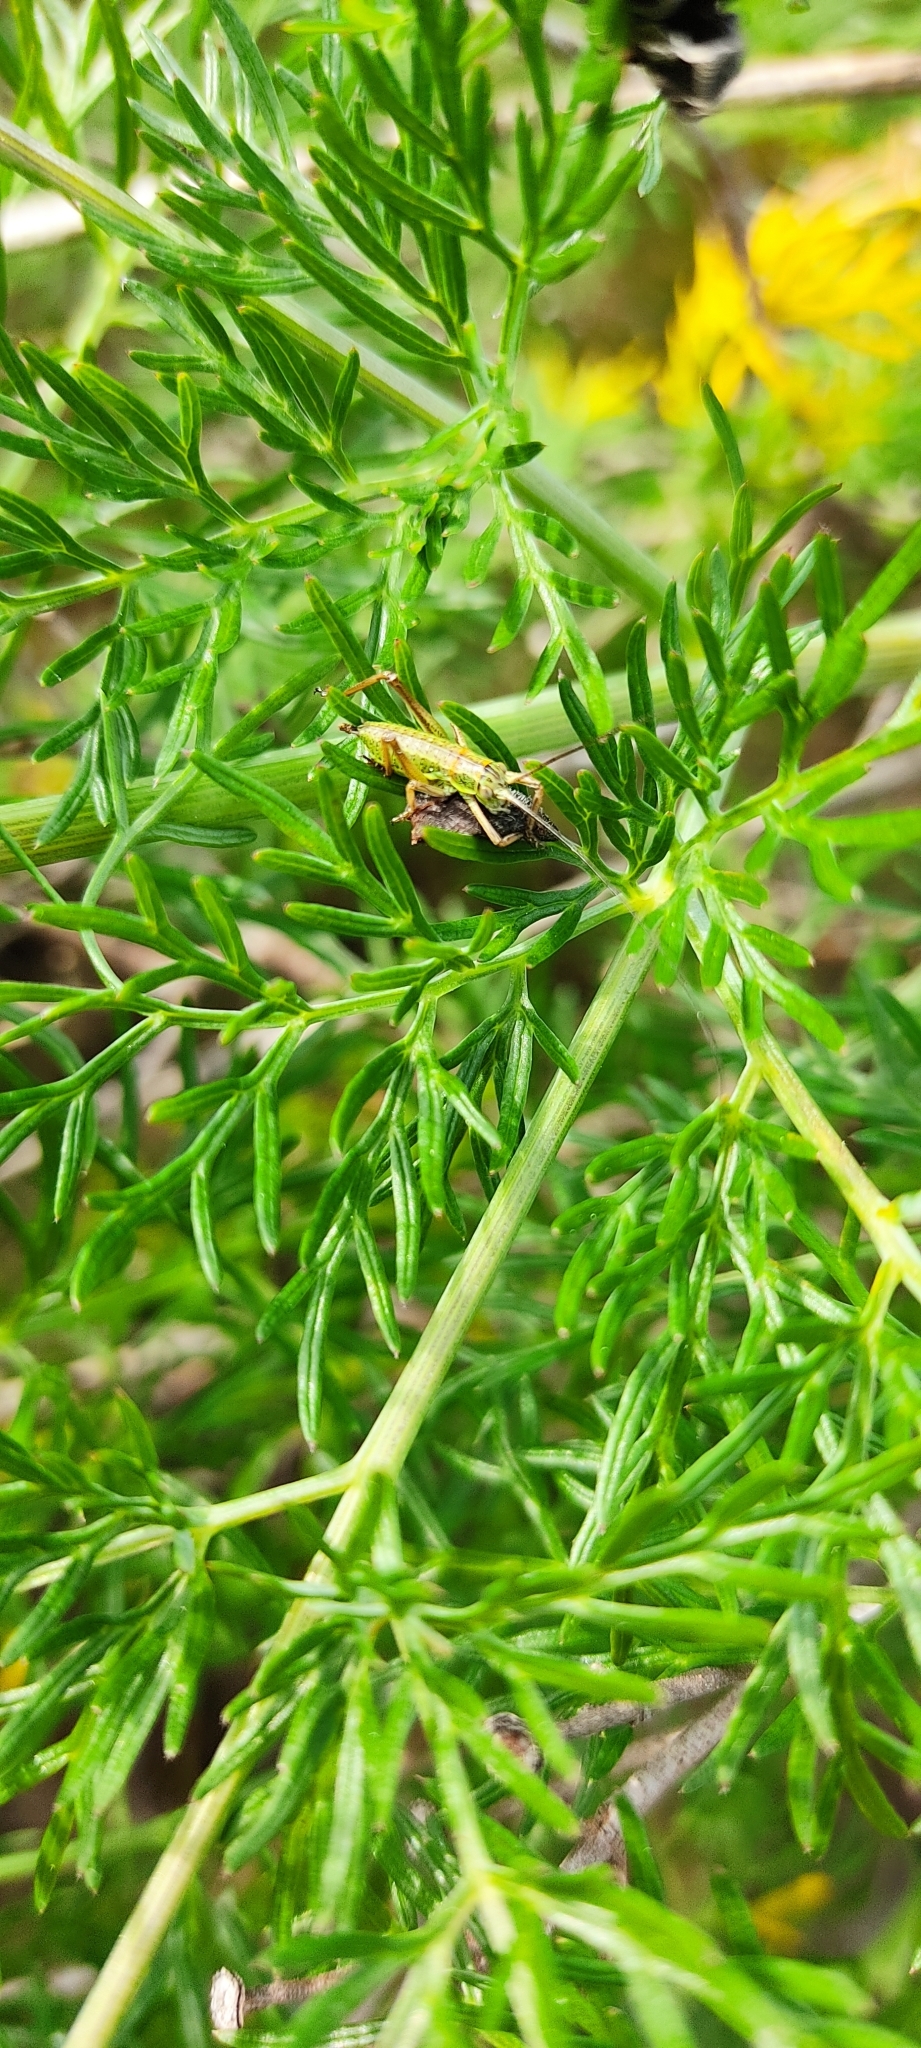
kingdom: Animalia
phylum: Arthropoda
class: Insecta
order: Orthoptera
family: Tettigoniidae
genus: Ephippiger
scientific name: Ephippiger diurnus
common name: Western saddle bush-cricket
